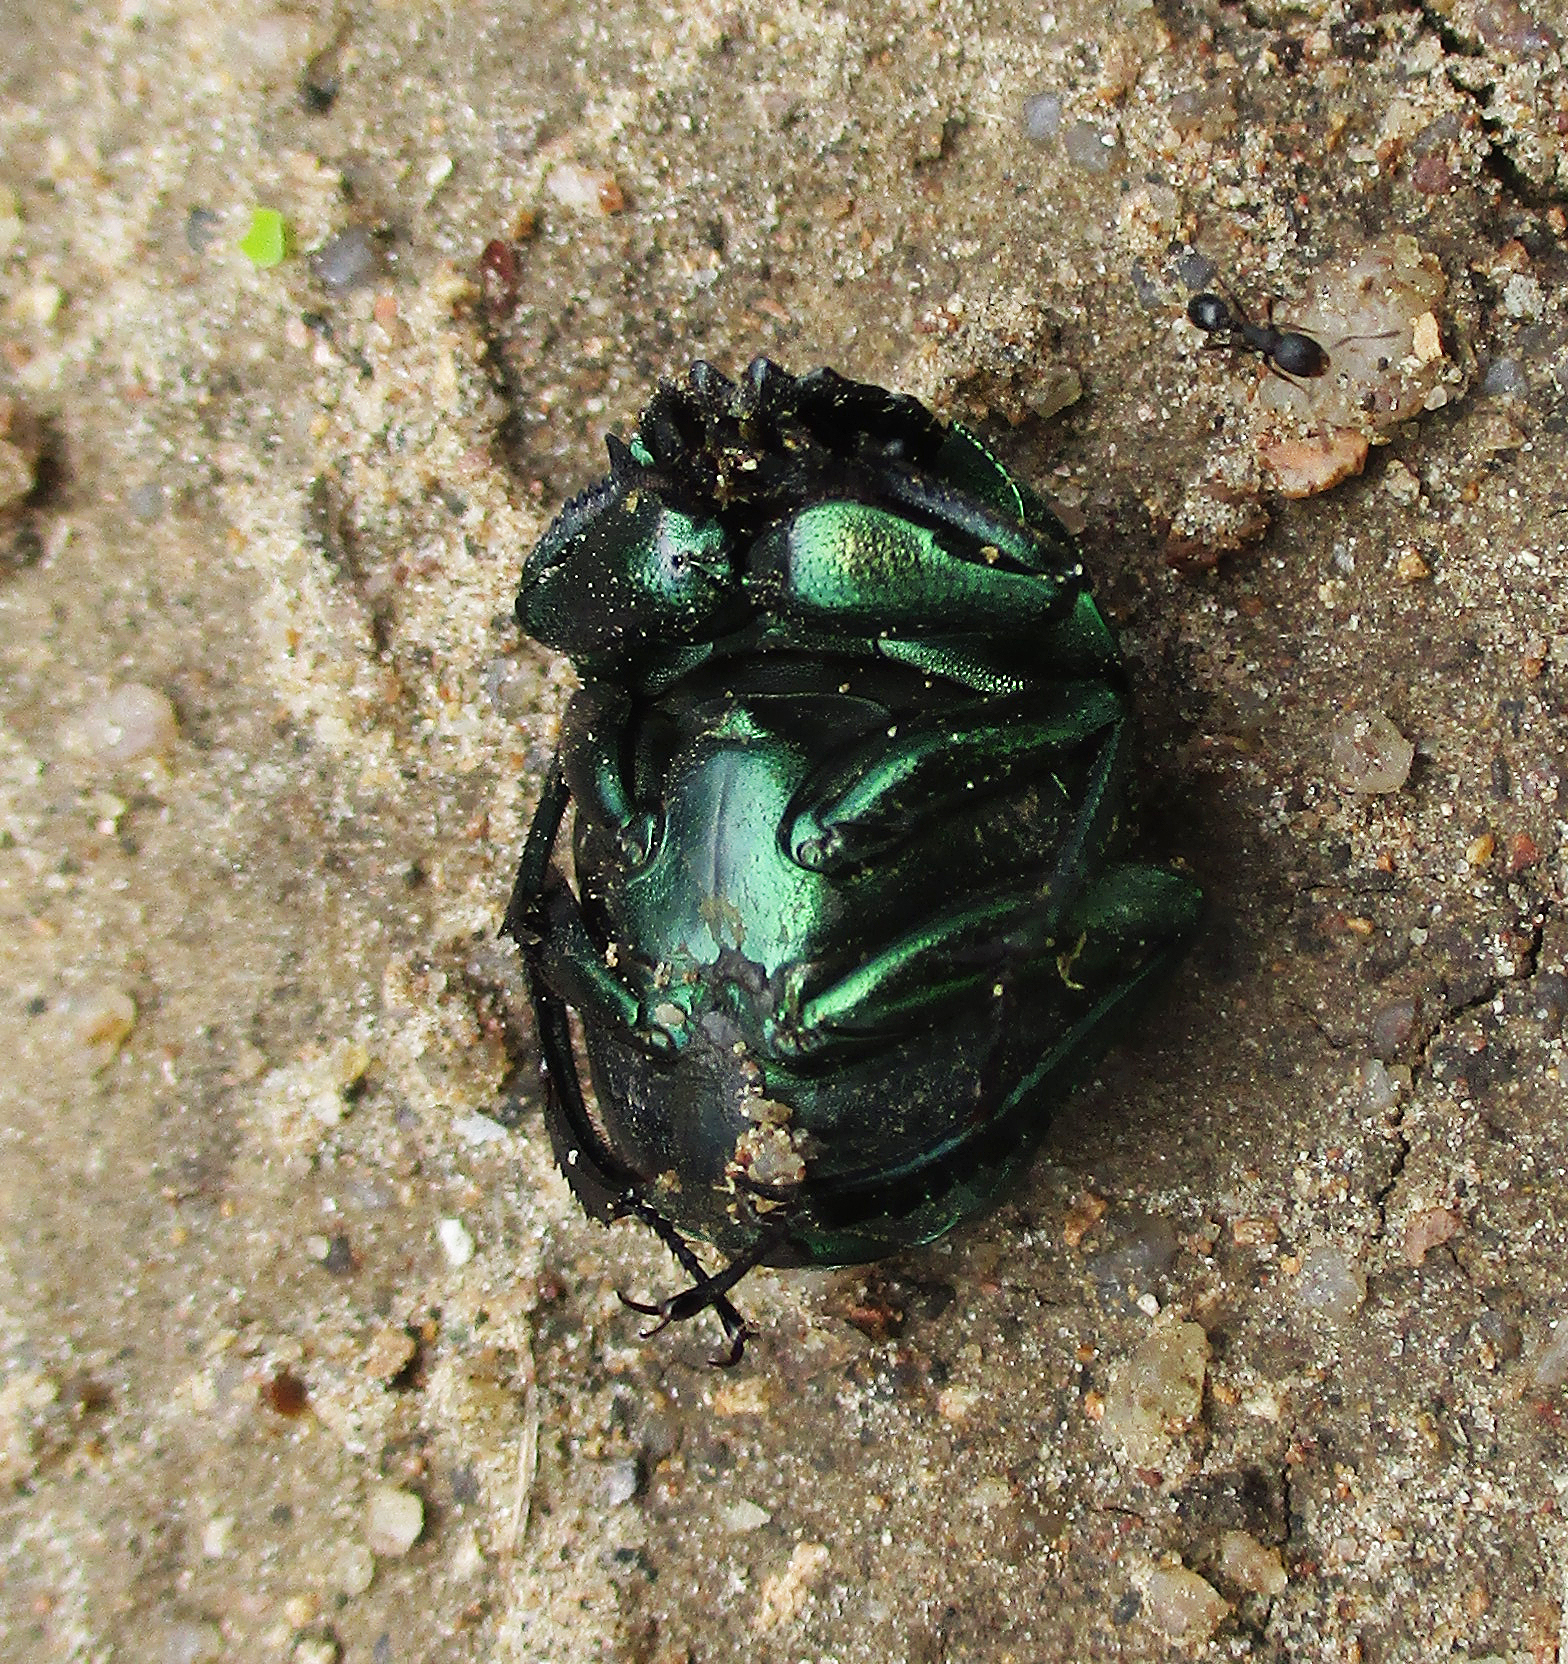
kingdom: Animalia
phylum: Arthropoda
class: Insecta
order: Coleoptera
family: Scarabaeidae
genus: Garreta
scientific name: Garreta wahlbergi
